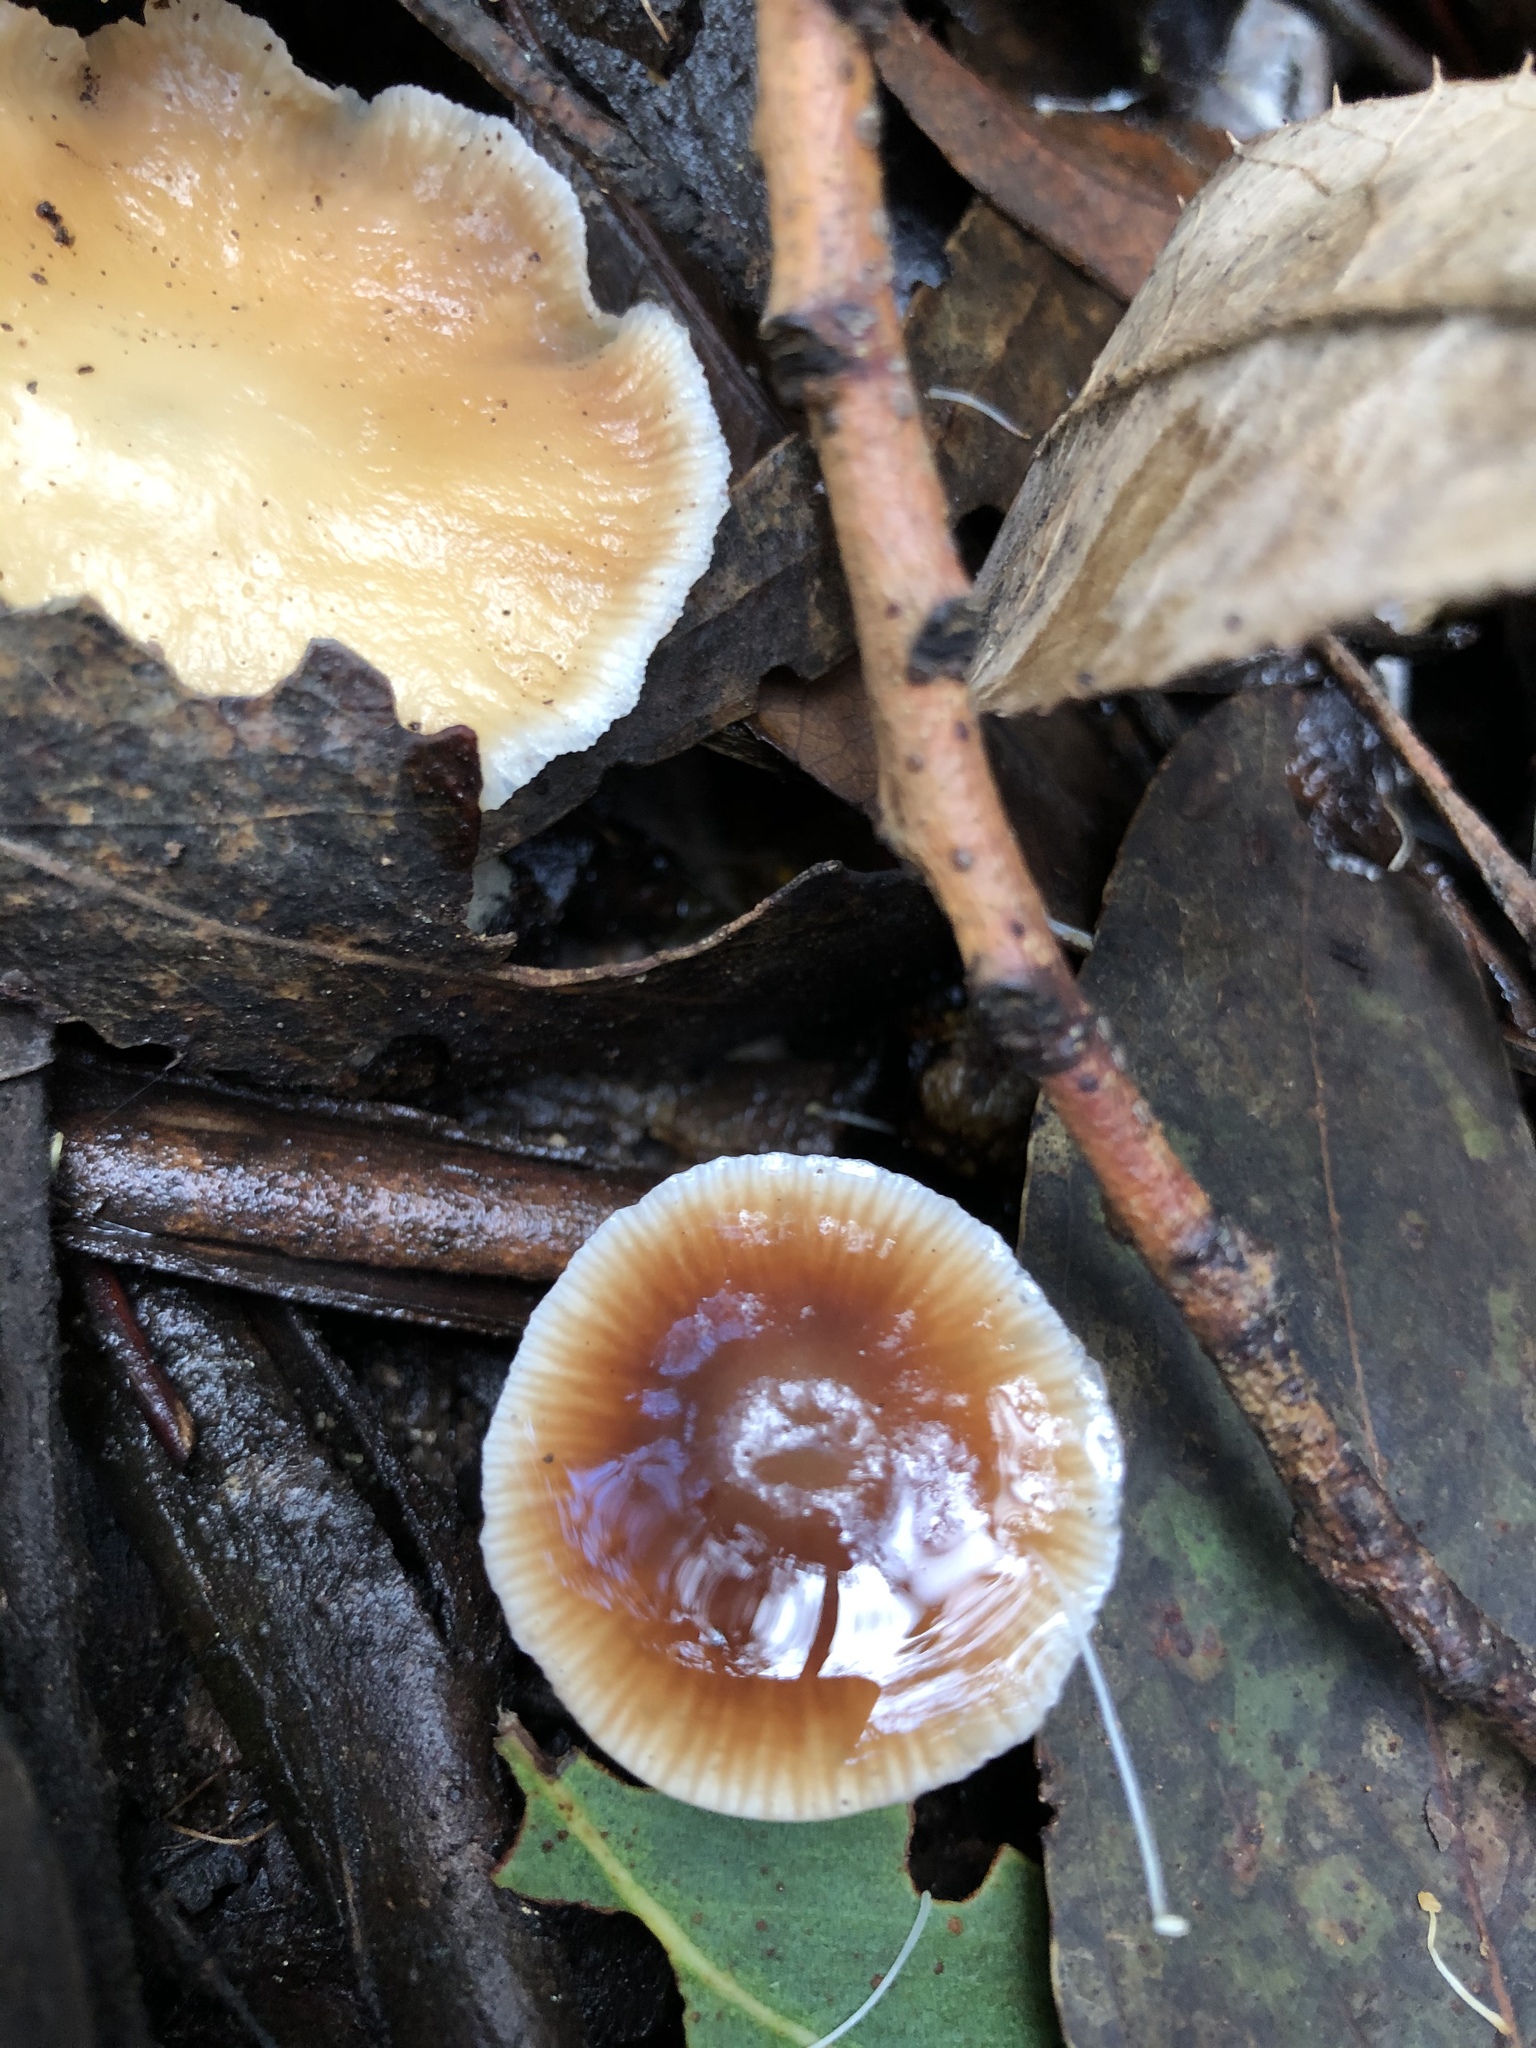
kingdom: Fungi
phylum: Basidiomycota
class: Agaricomycetes
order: Agaricales
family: Omphalotaceae
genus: Gymnopus
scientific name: Gymnopus brassicolens
